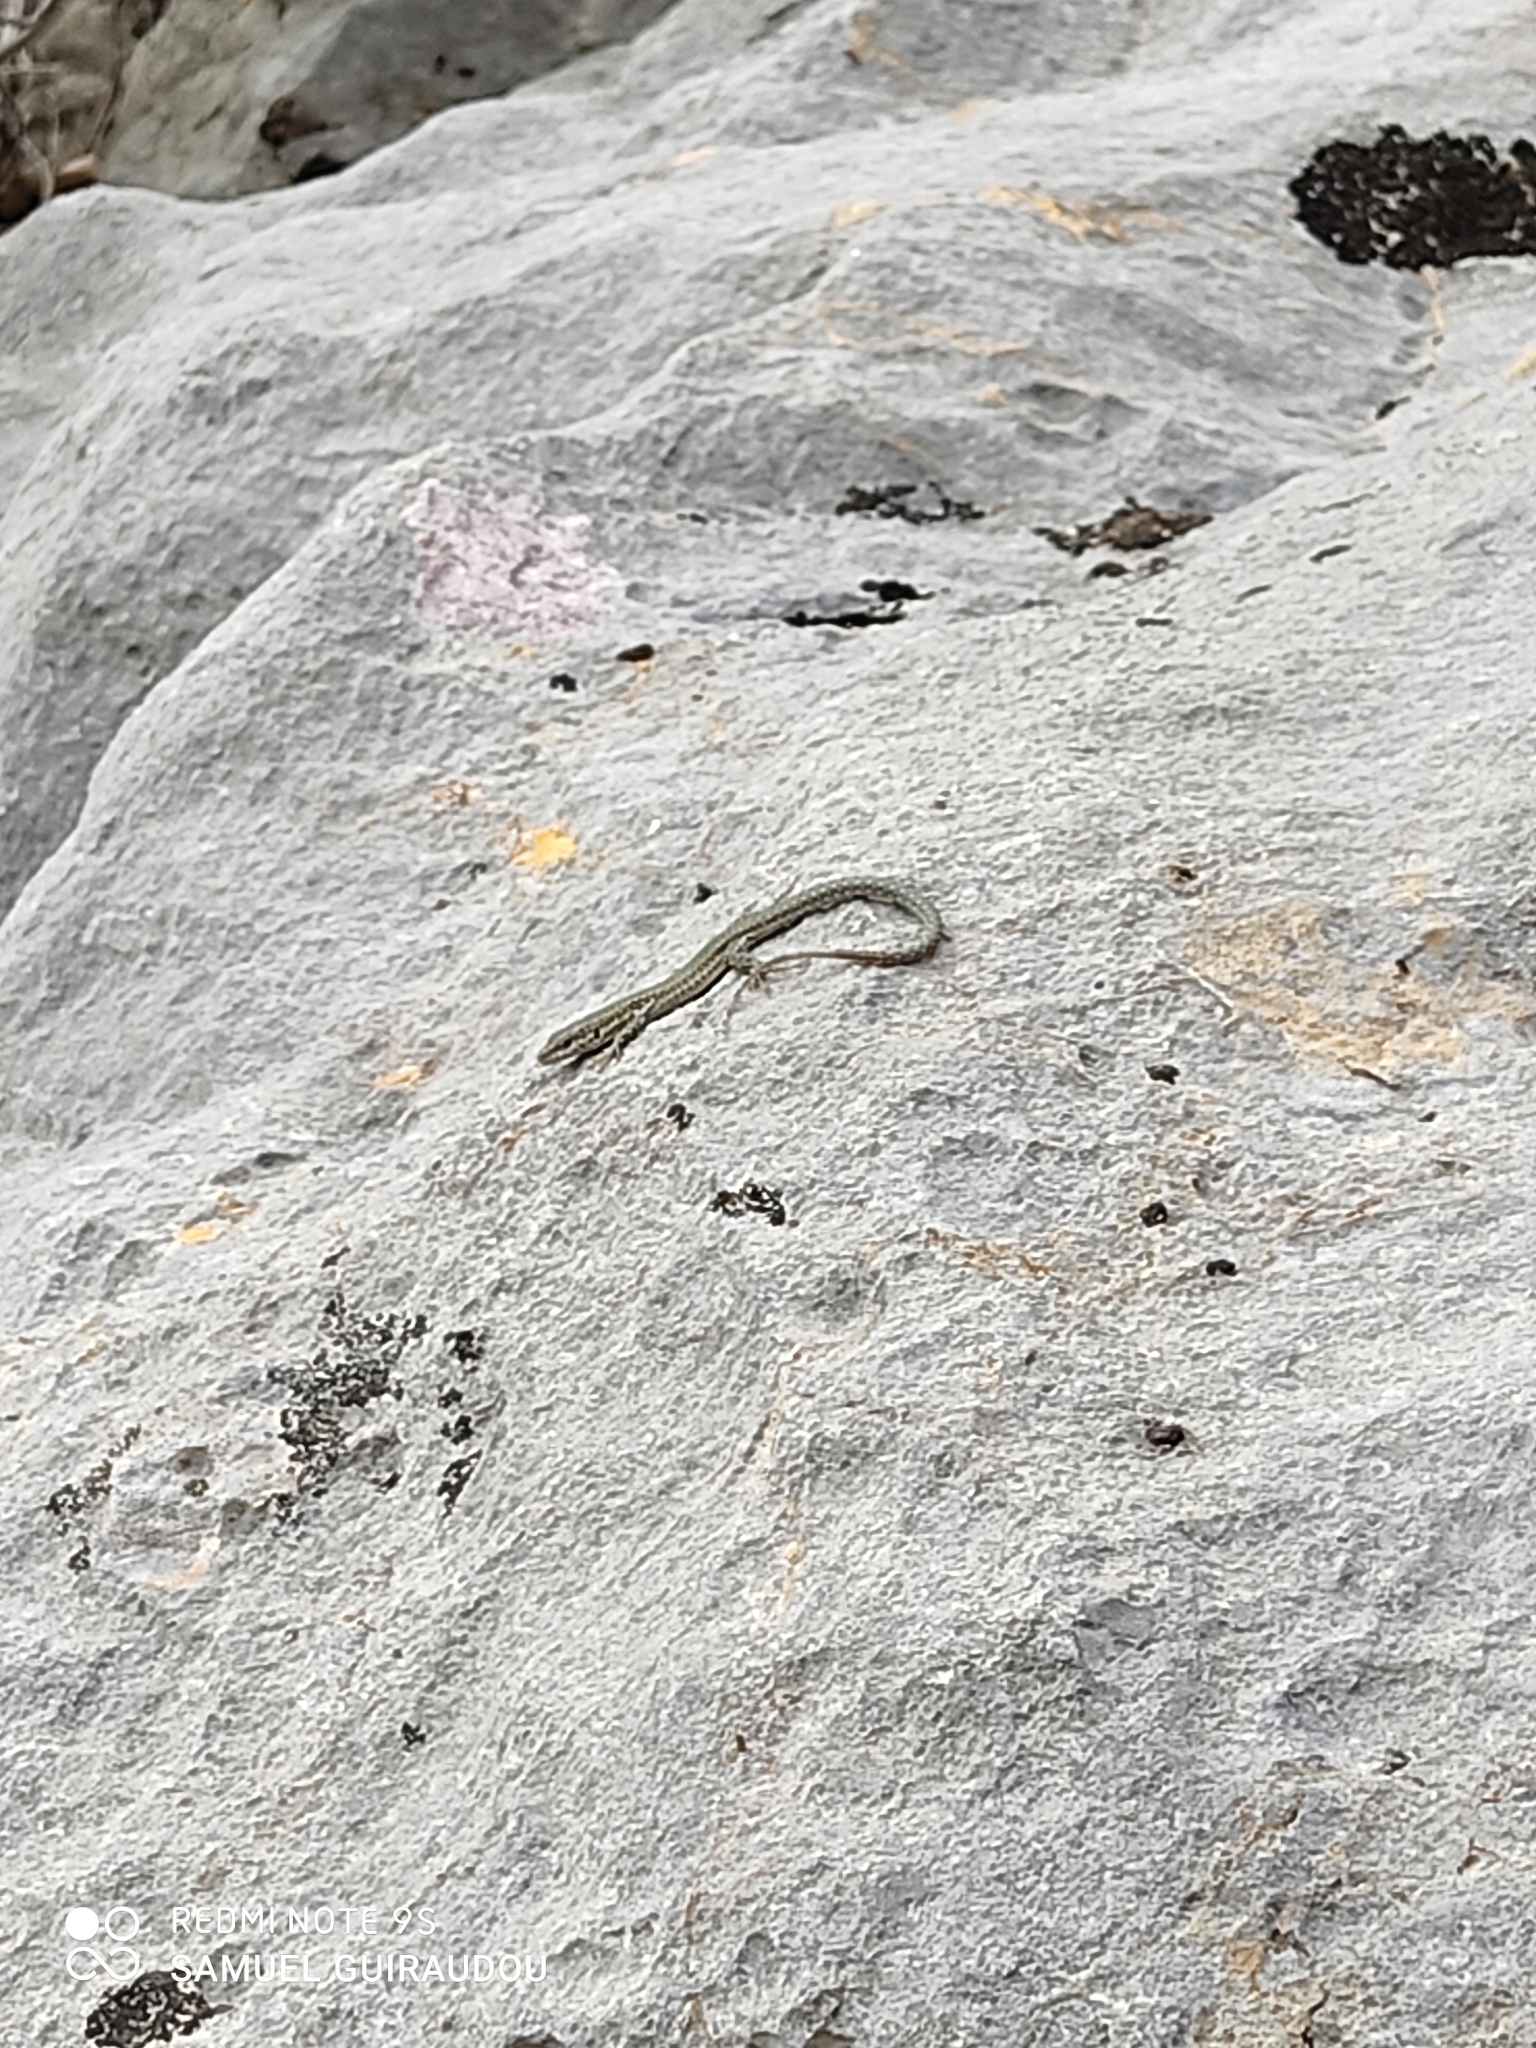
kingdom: Animalia
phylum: Chordata
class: Squamata
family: Lacertidae
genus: Podarcis
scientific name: Podarcis muralis
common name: Common wall lizard
